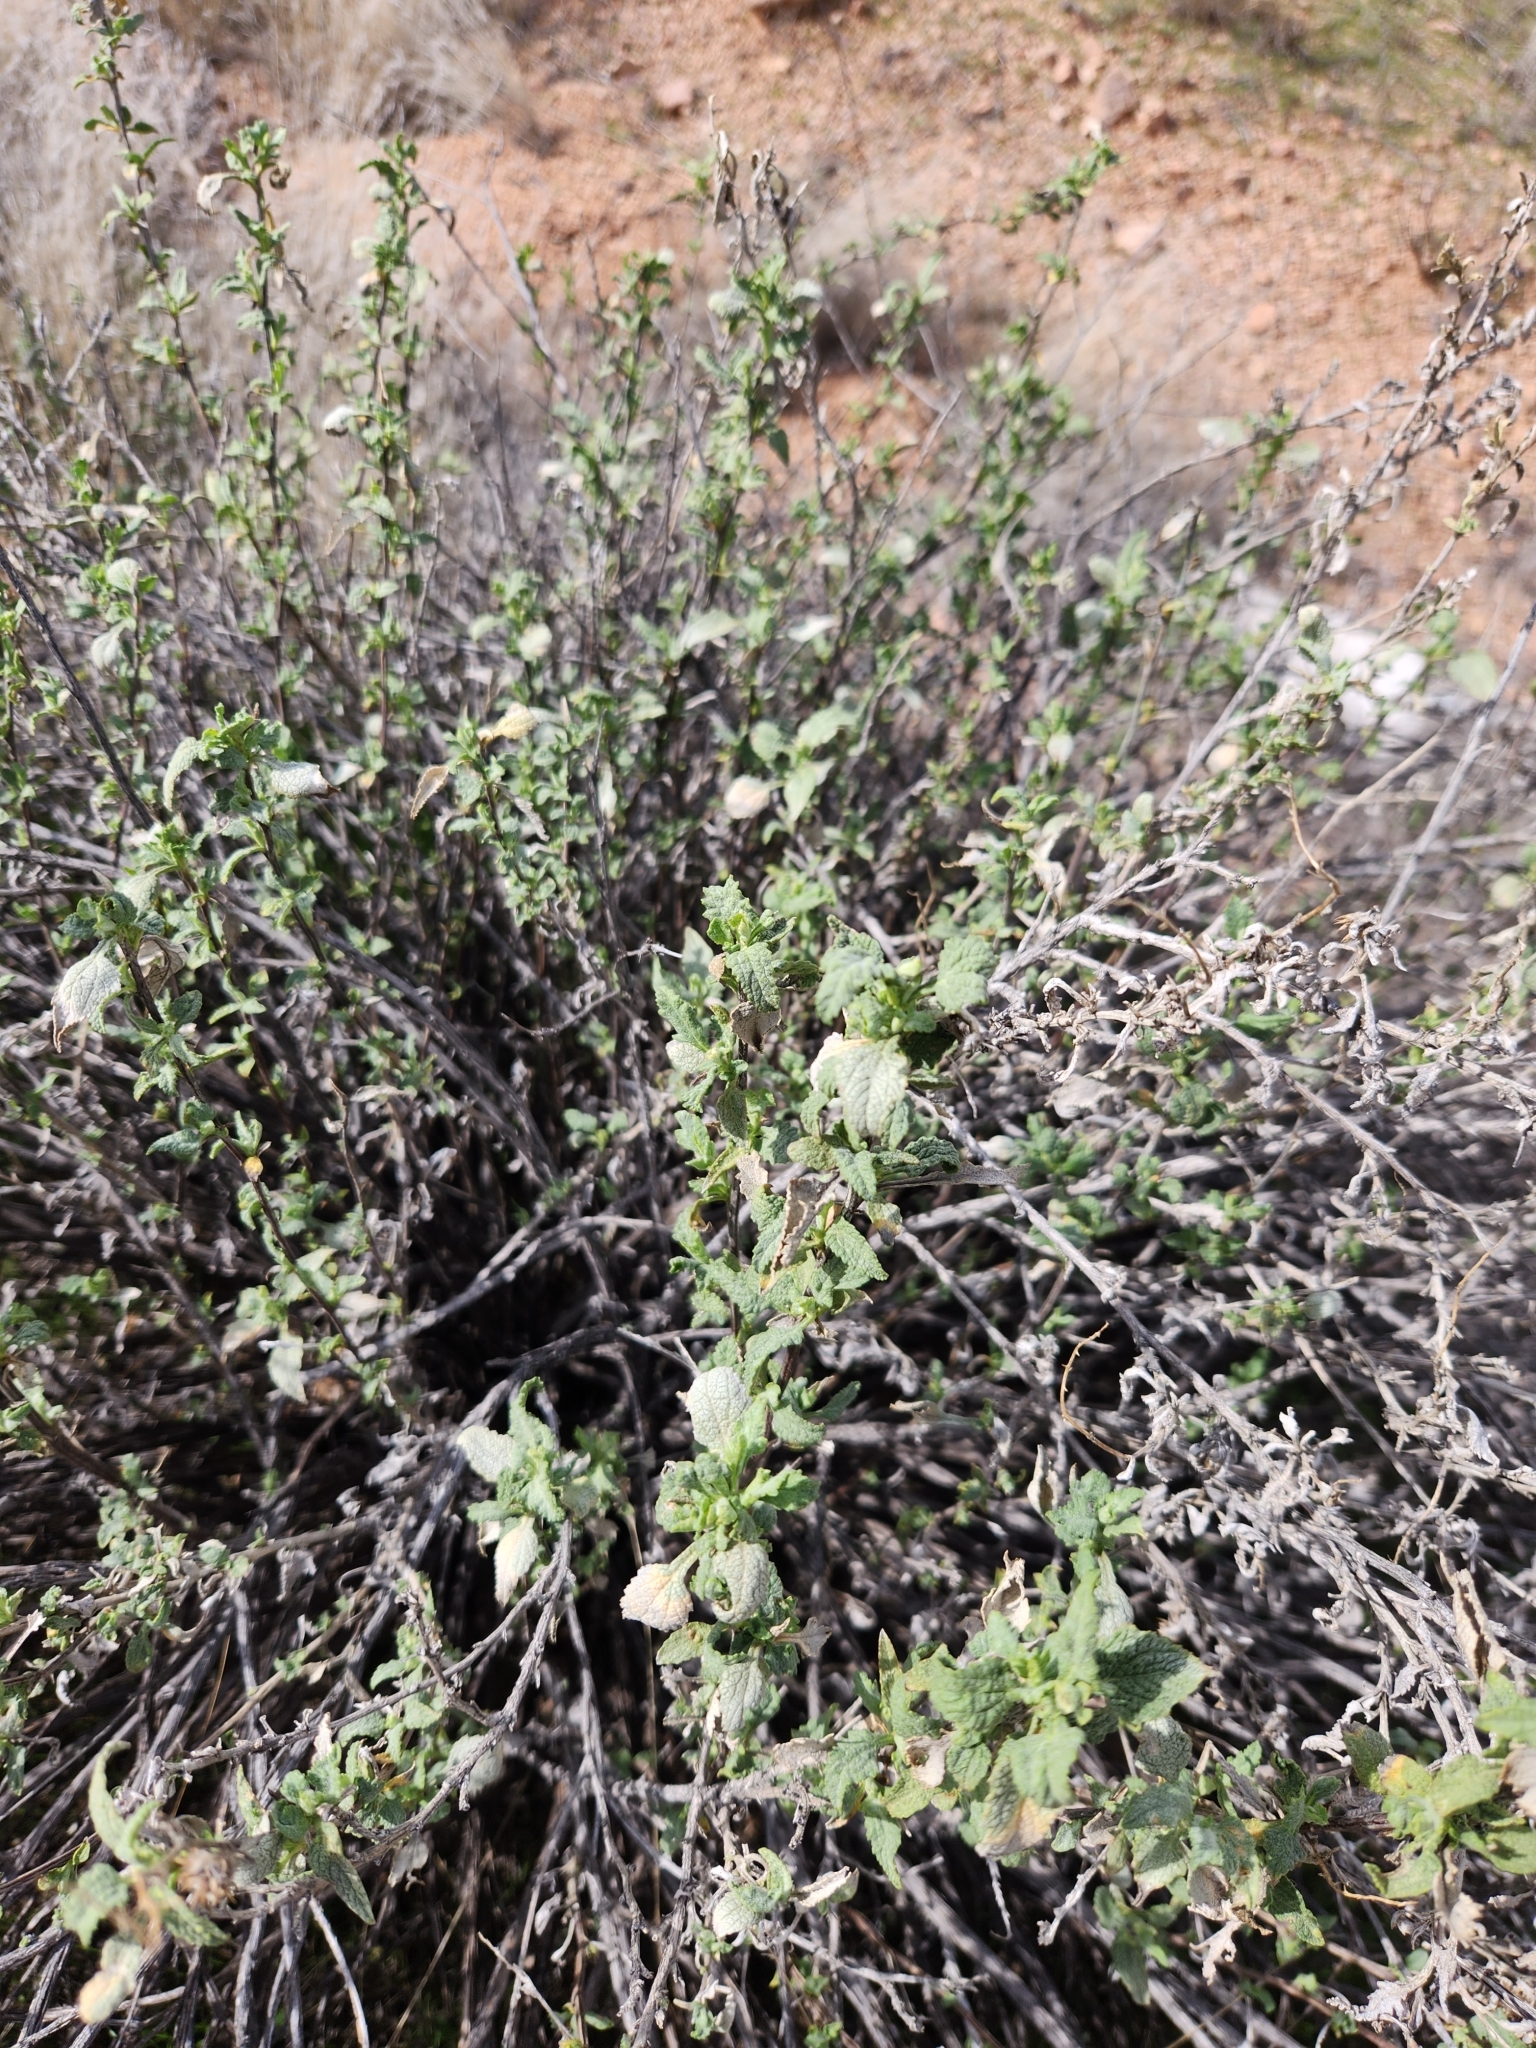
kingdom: Plantae
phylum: Tracheophyta
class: Magnoliopsida
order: Lamiales
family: Lamiaceae
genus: Marrubium
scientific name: Marrubium vulgare
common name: Horehound
